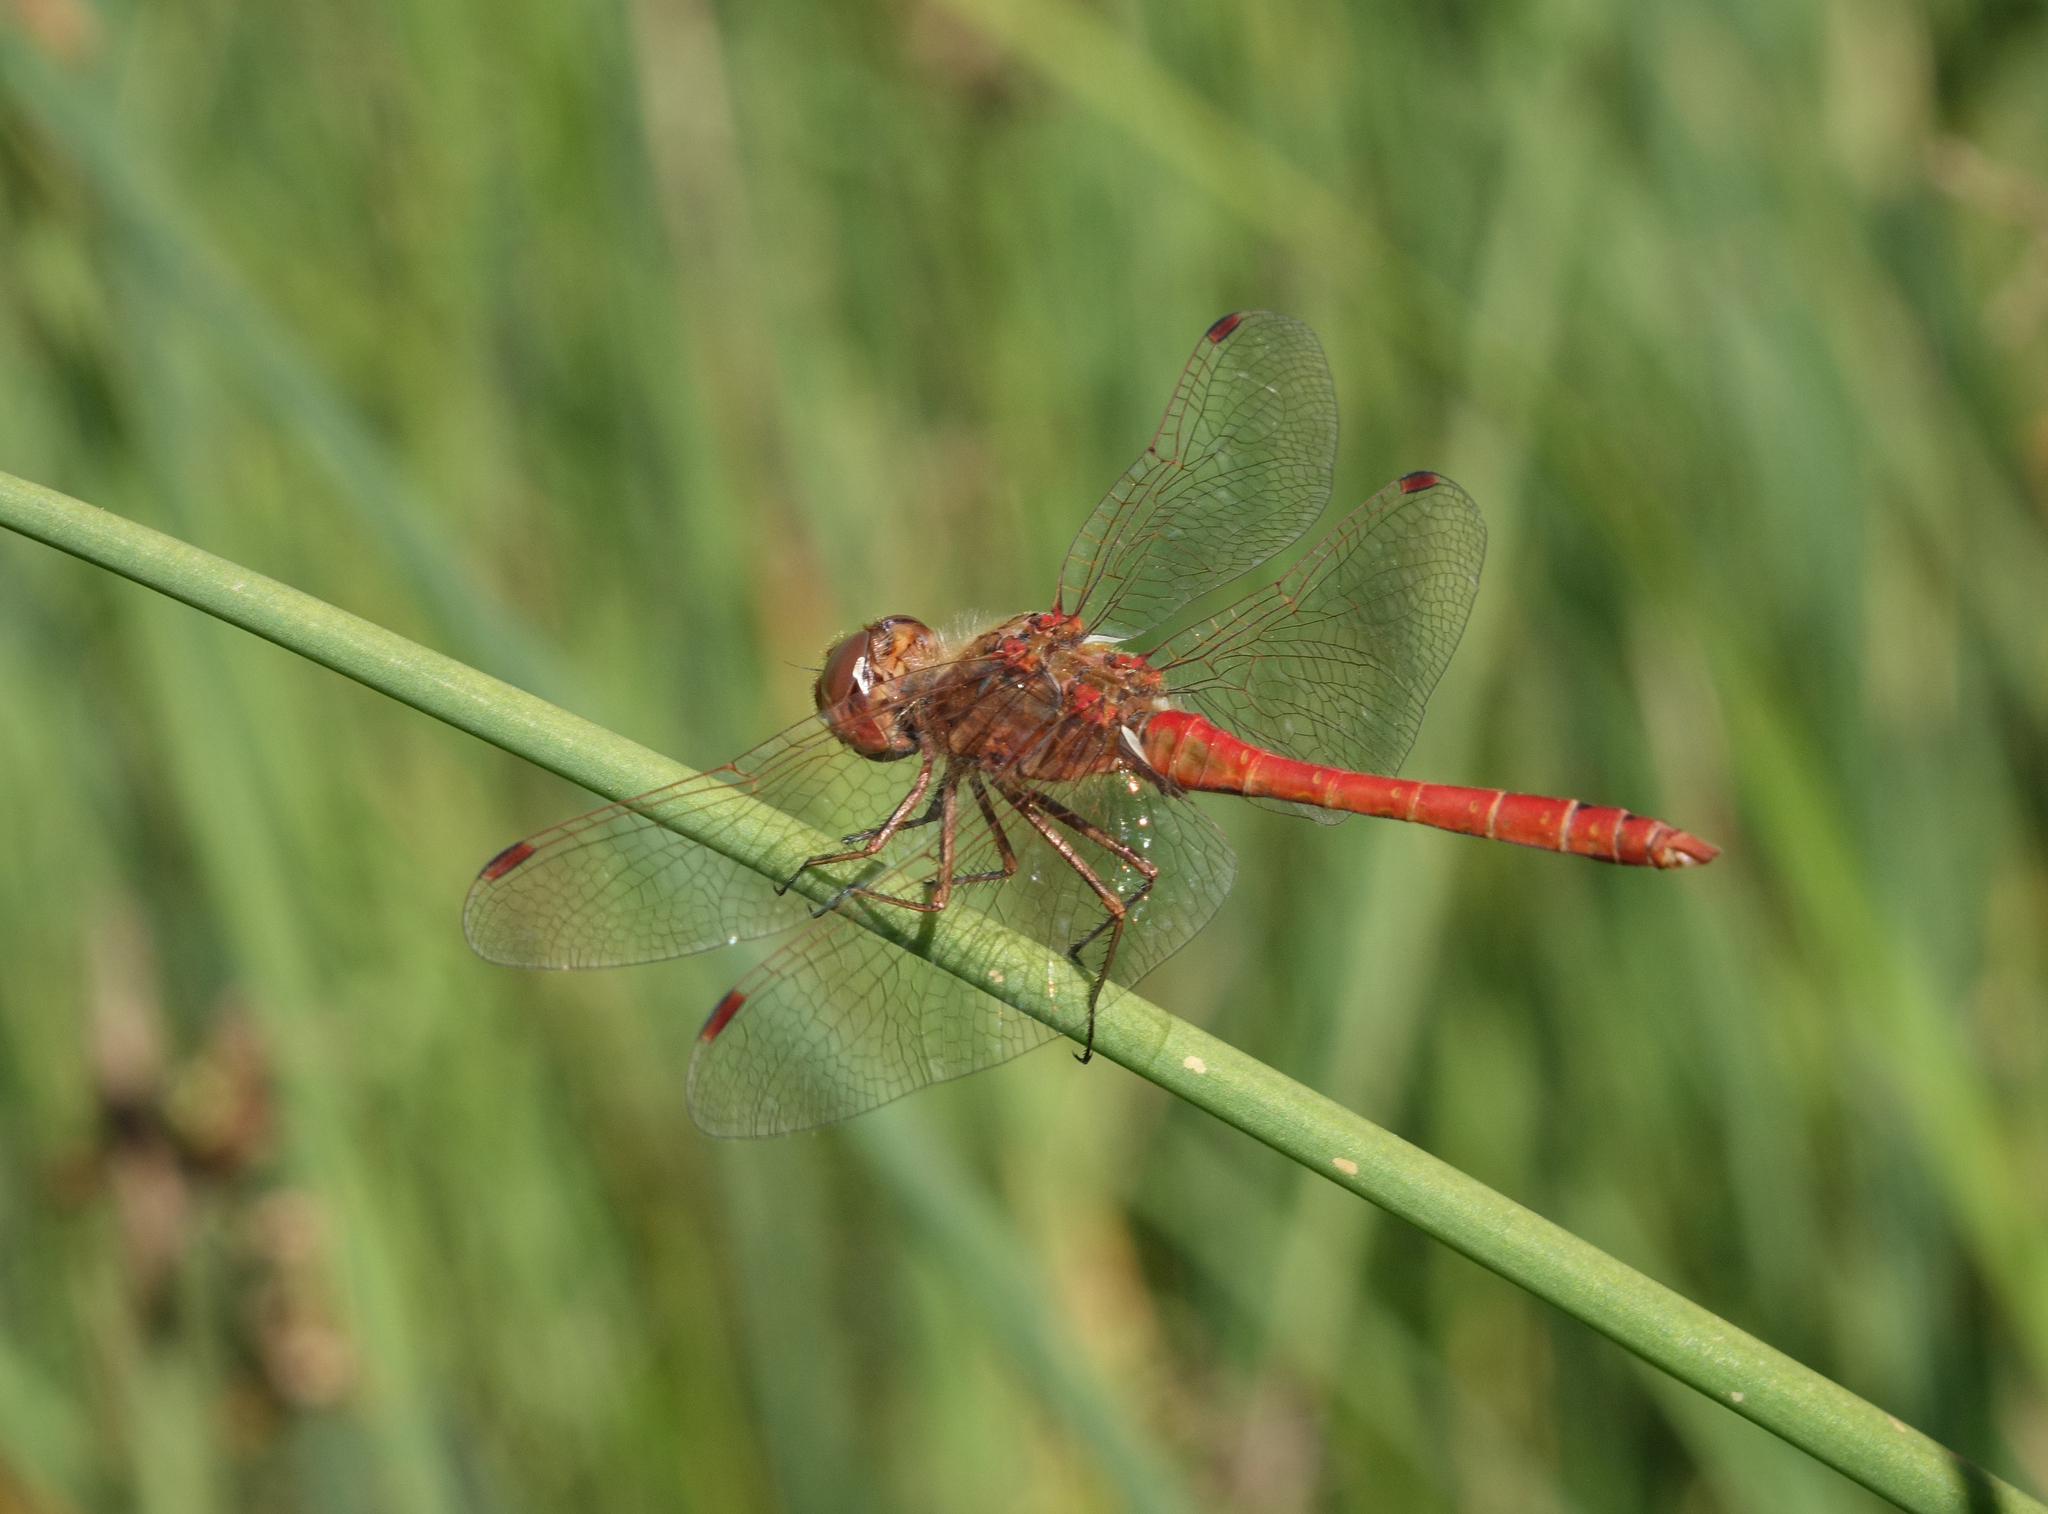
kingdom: Animalia
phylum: Arthropoda
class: Insecta
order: Odonata
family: Libellulidae
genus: Sympetrum
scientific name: Sympetrum vulgatum
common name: Vagrant darter
